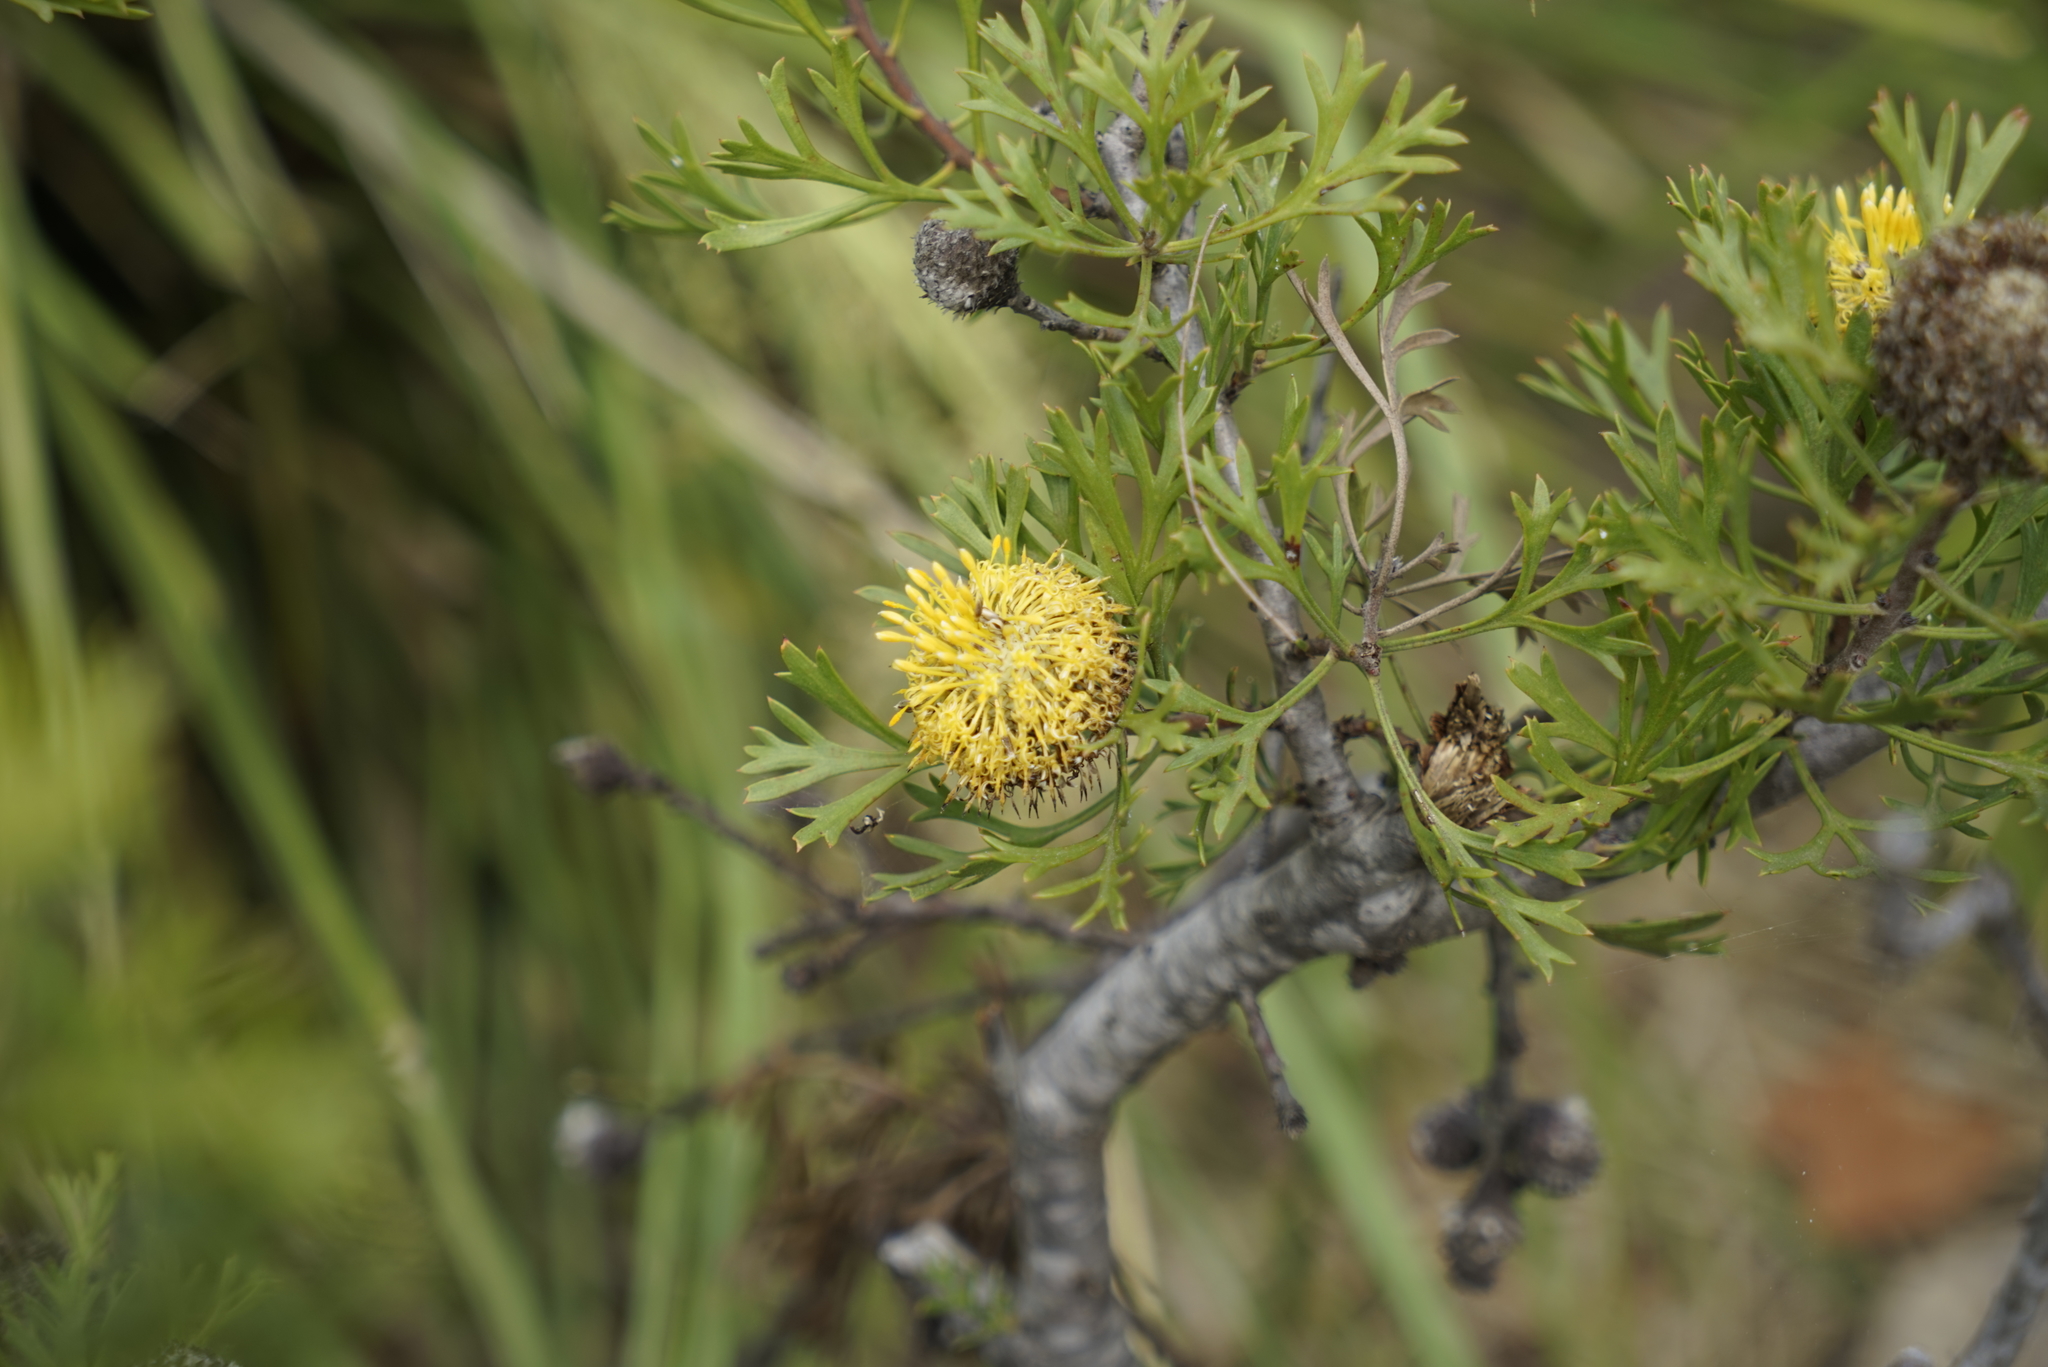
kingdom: Plantae
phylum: Tracheophyta
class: Magnoliopsida
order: Proteales
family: Proteaceae
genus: Isopogon
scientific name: Isopogon anemonifolius
